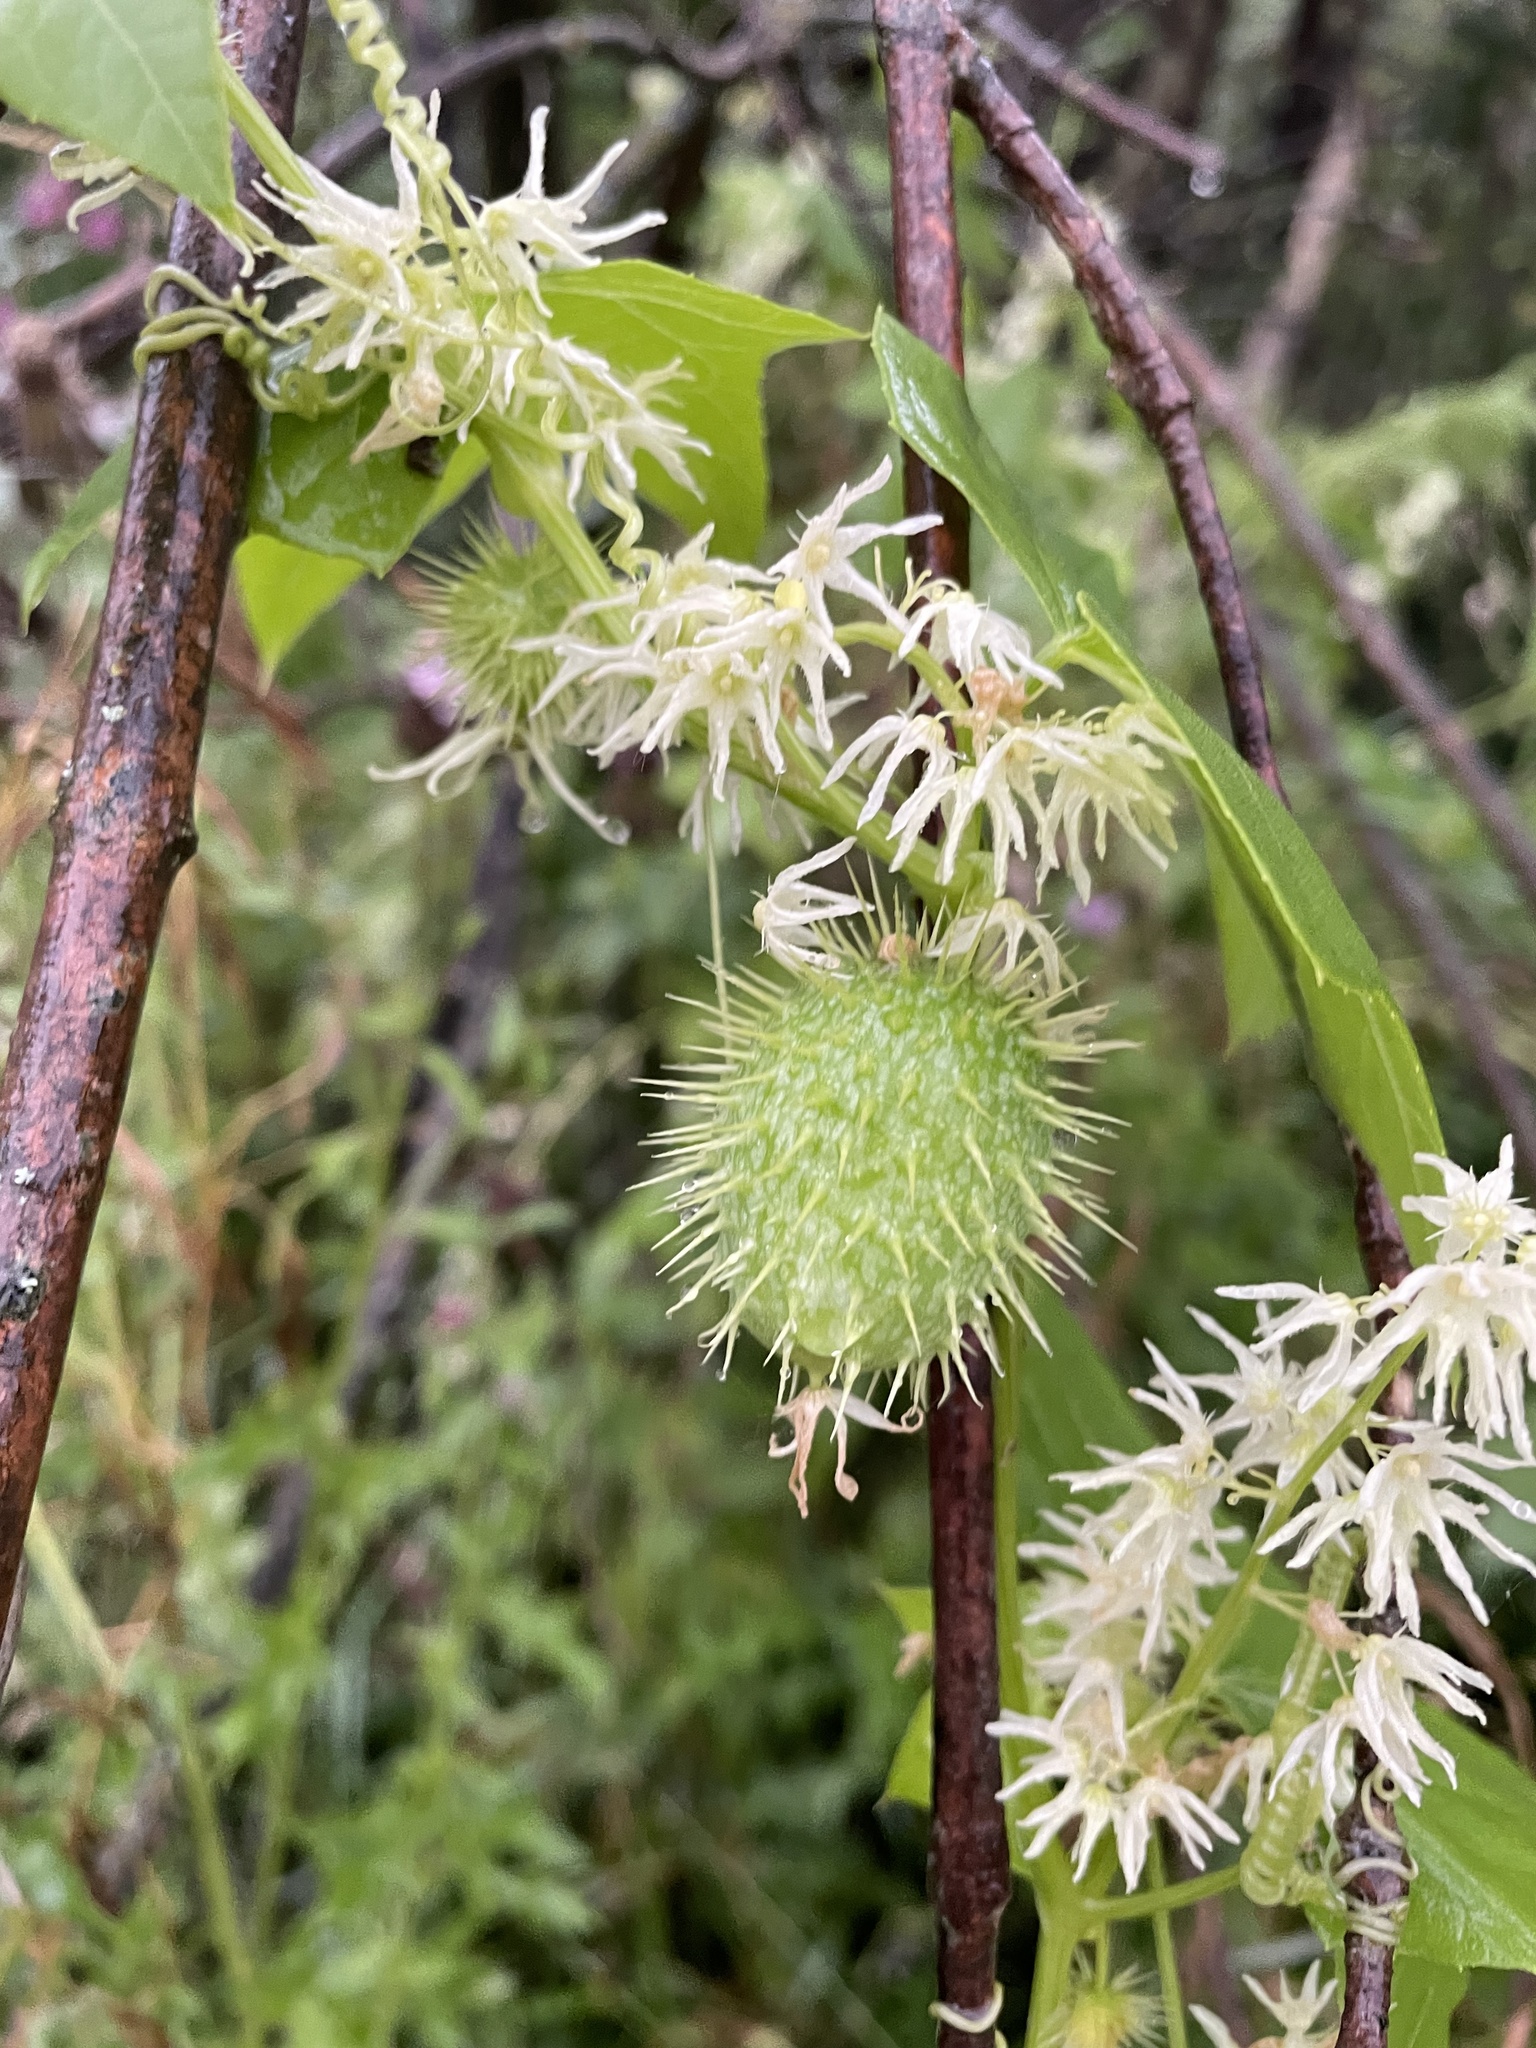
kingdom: Plantae
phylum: Tracheophyta
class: Magnoliopsida
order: Cucurbitales
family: Cucurbitaceae
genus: Echinocystis
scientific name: Echinocystis lobata
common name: Wild cucumber
